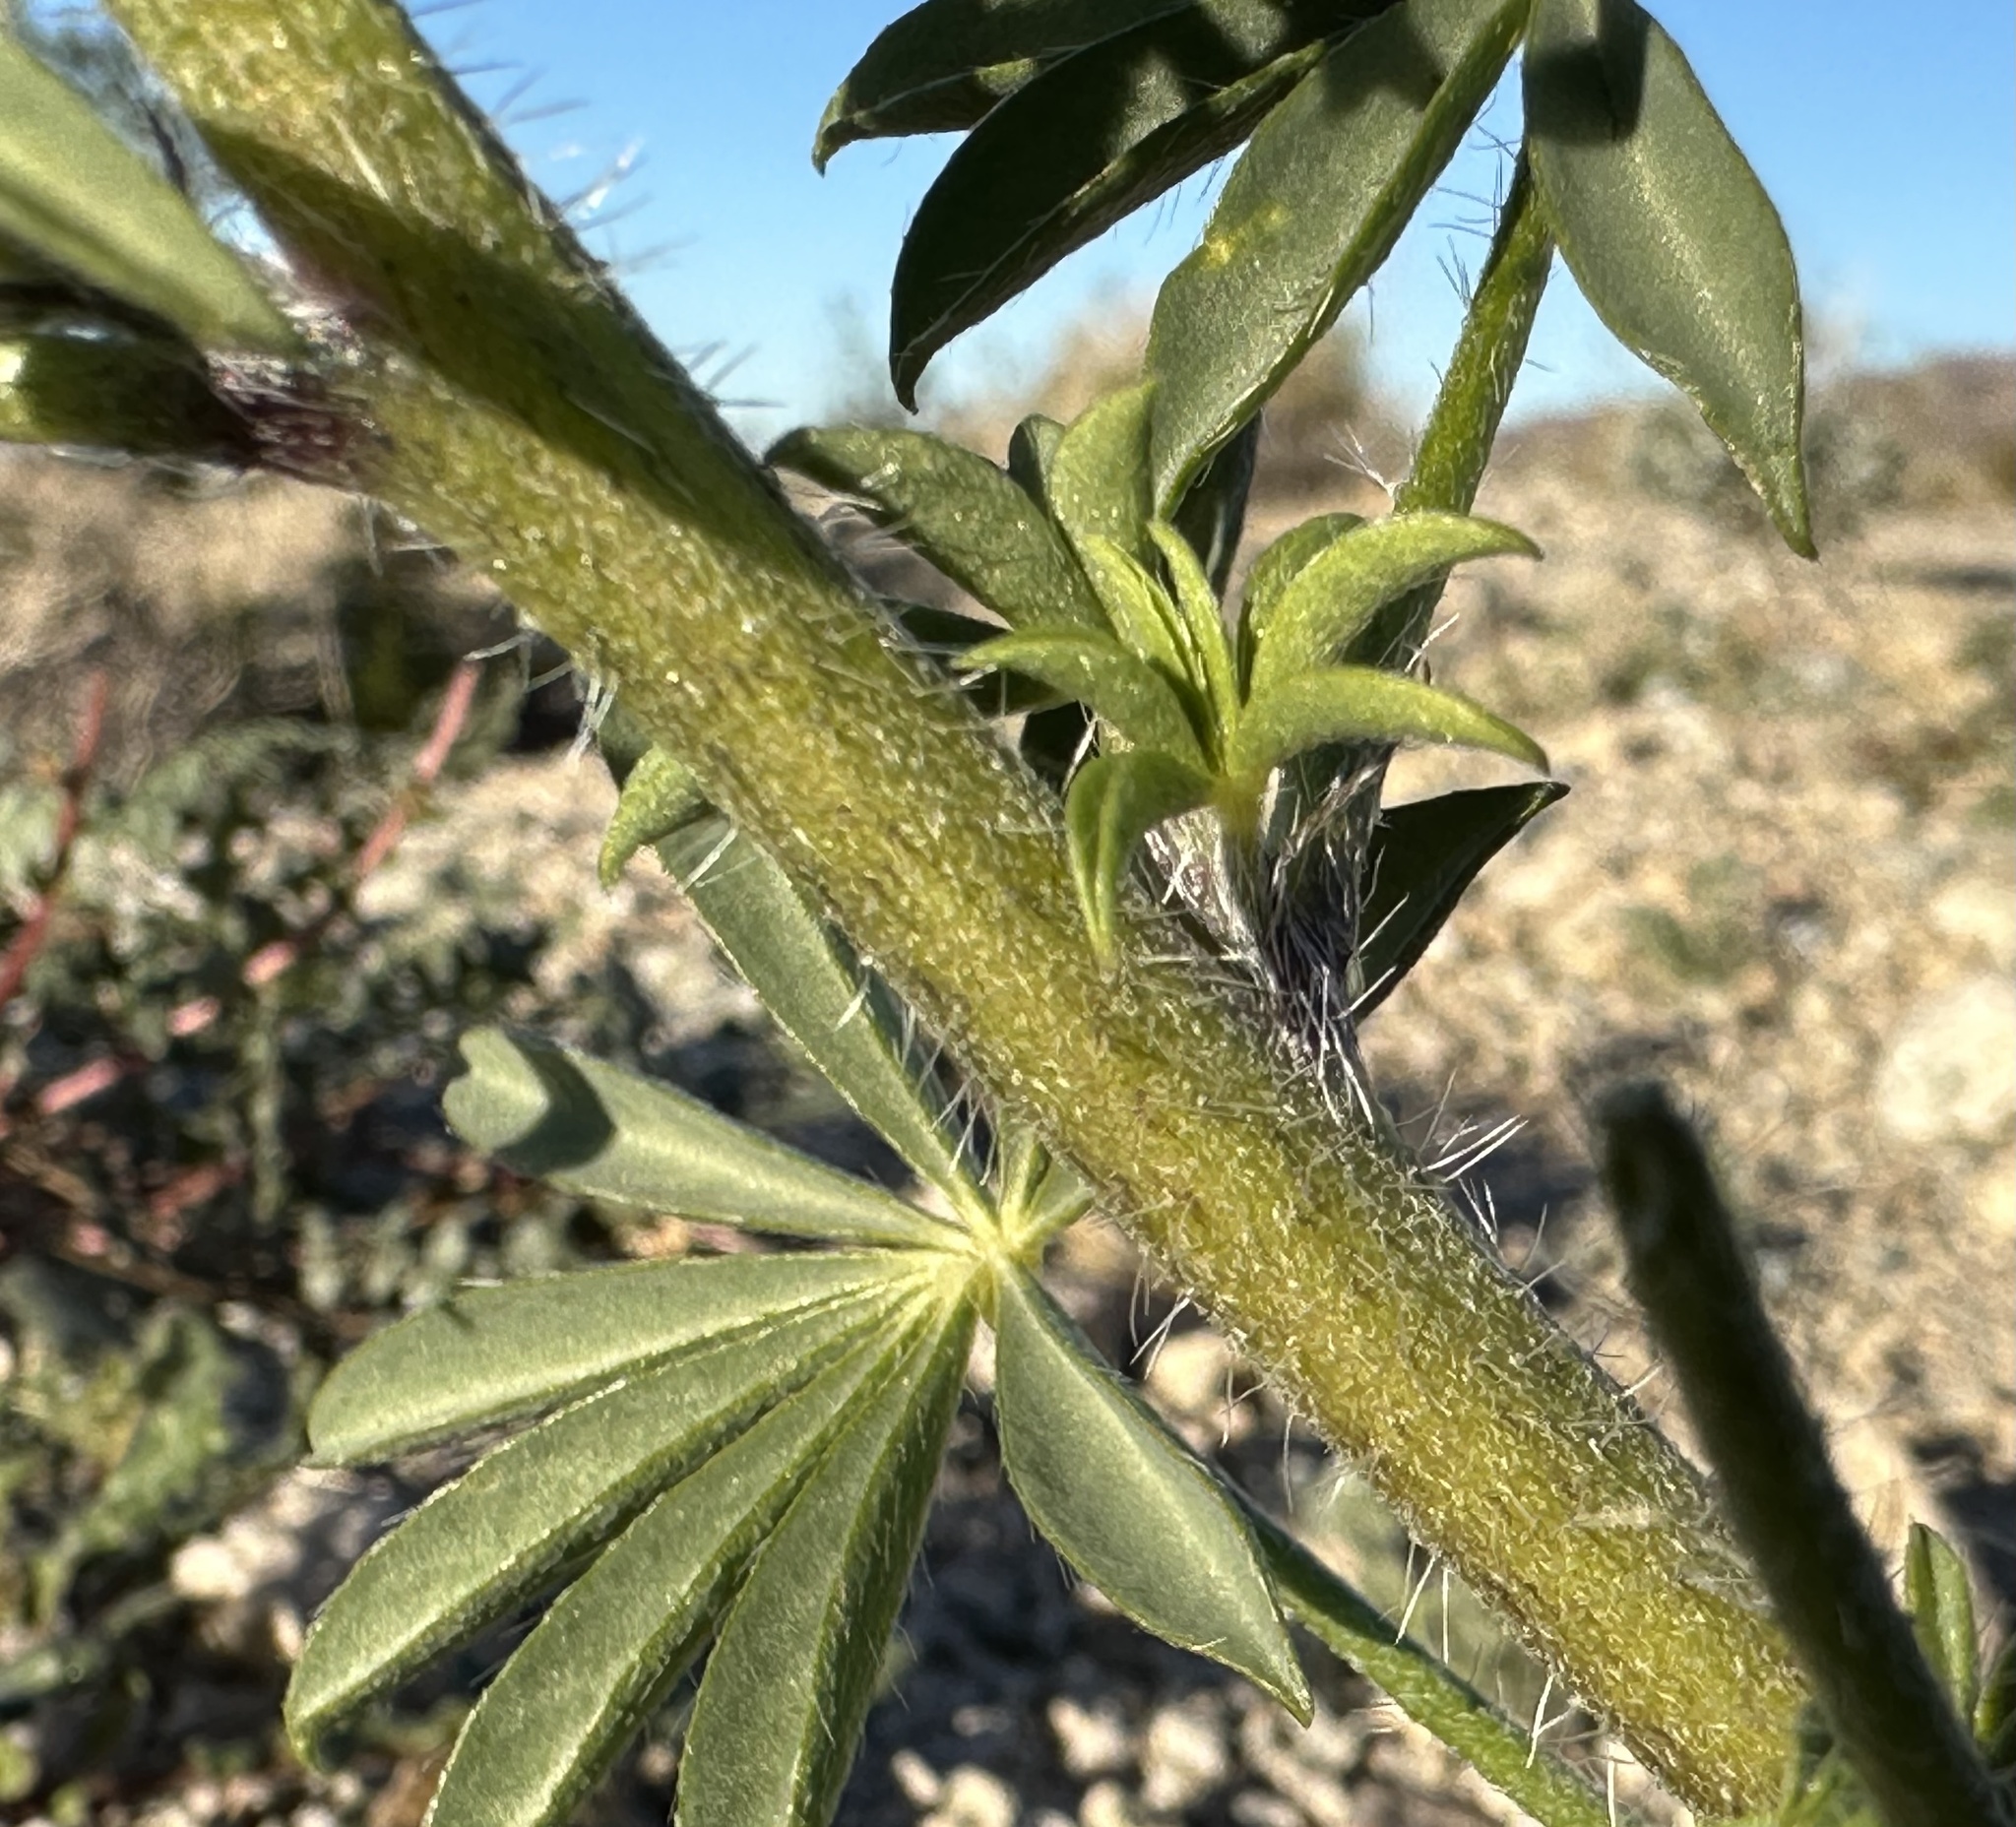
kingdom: Plantae
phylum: Tracheophyta
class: Magnoliopsida
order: Fabales
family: Fabaceae
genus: Lupinus
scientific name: Lupinus arizonicus
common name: Arizona lupine
